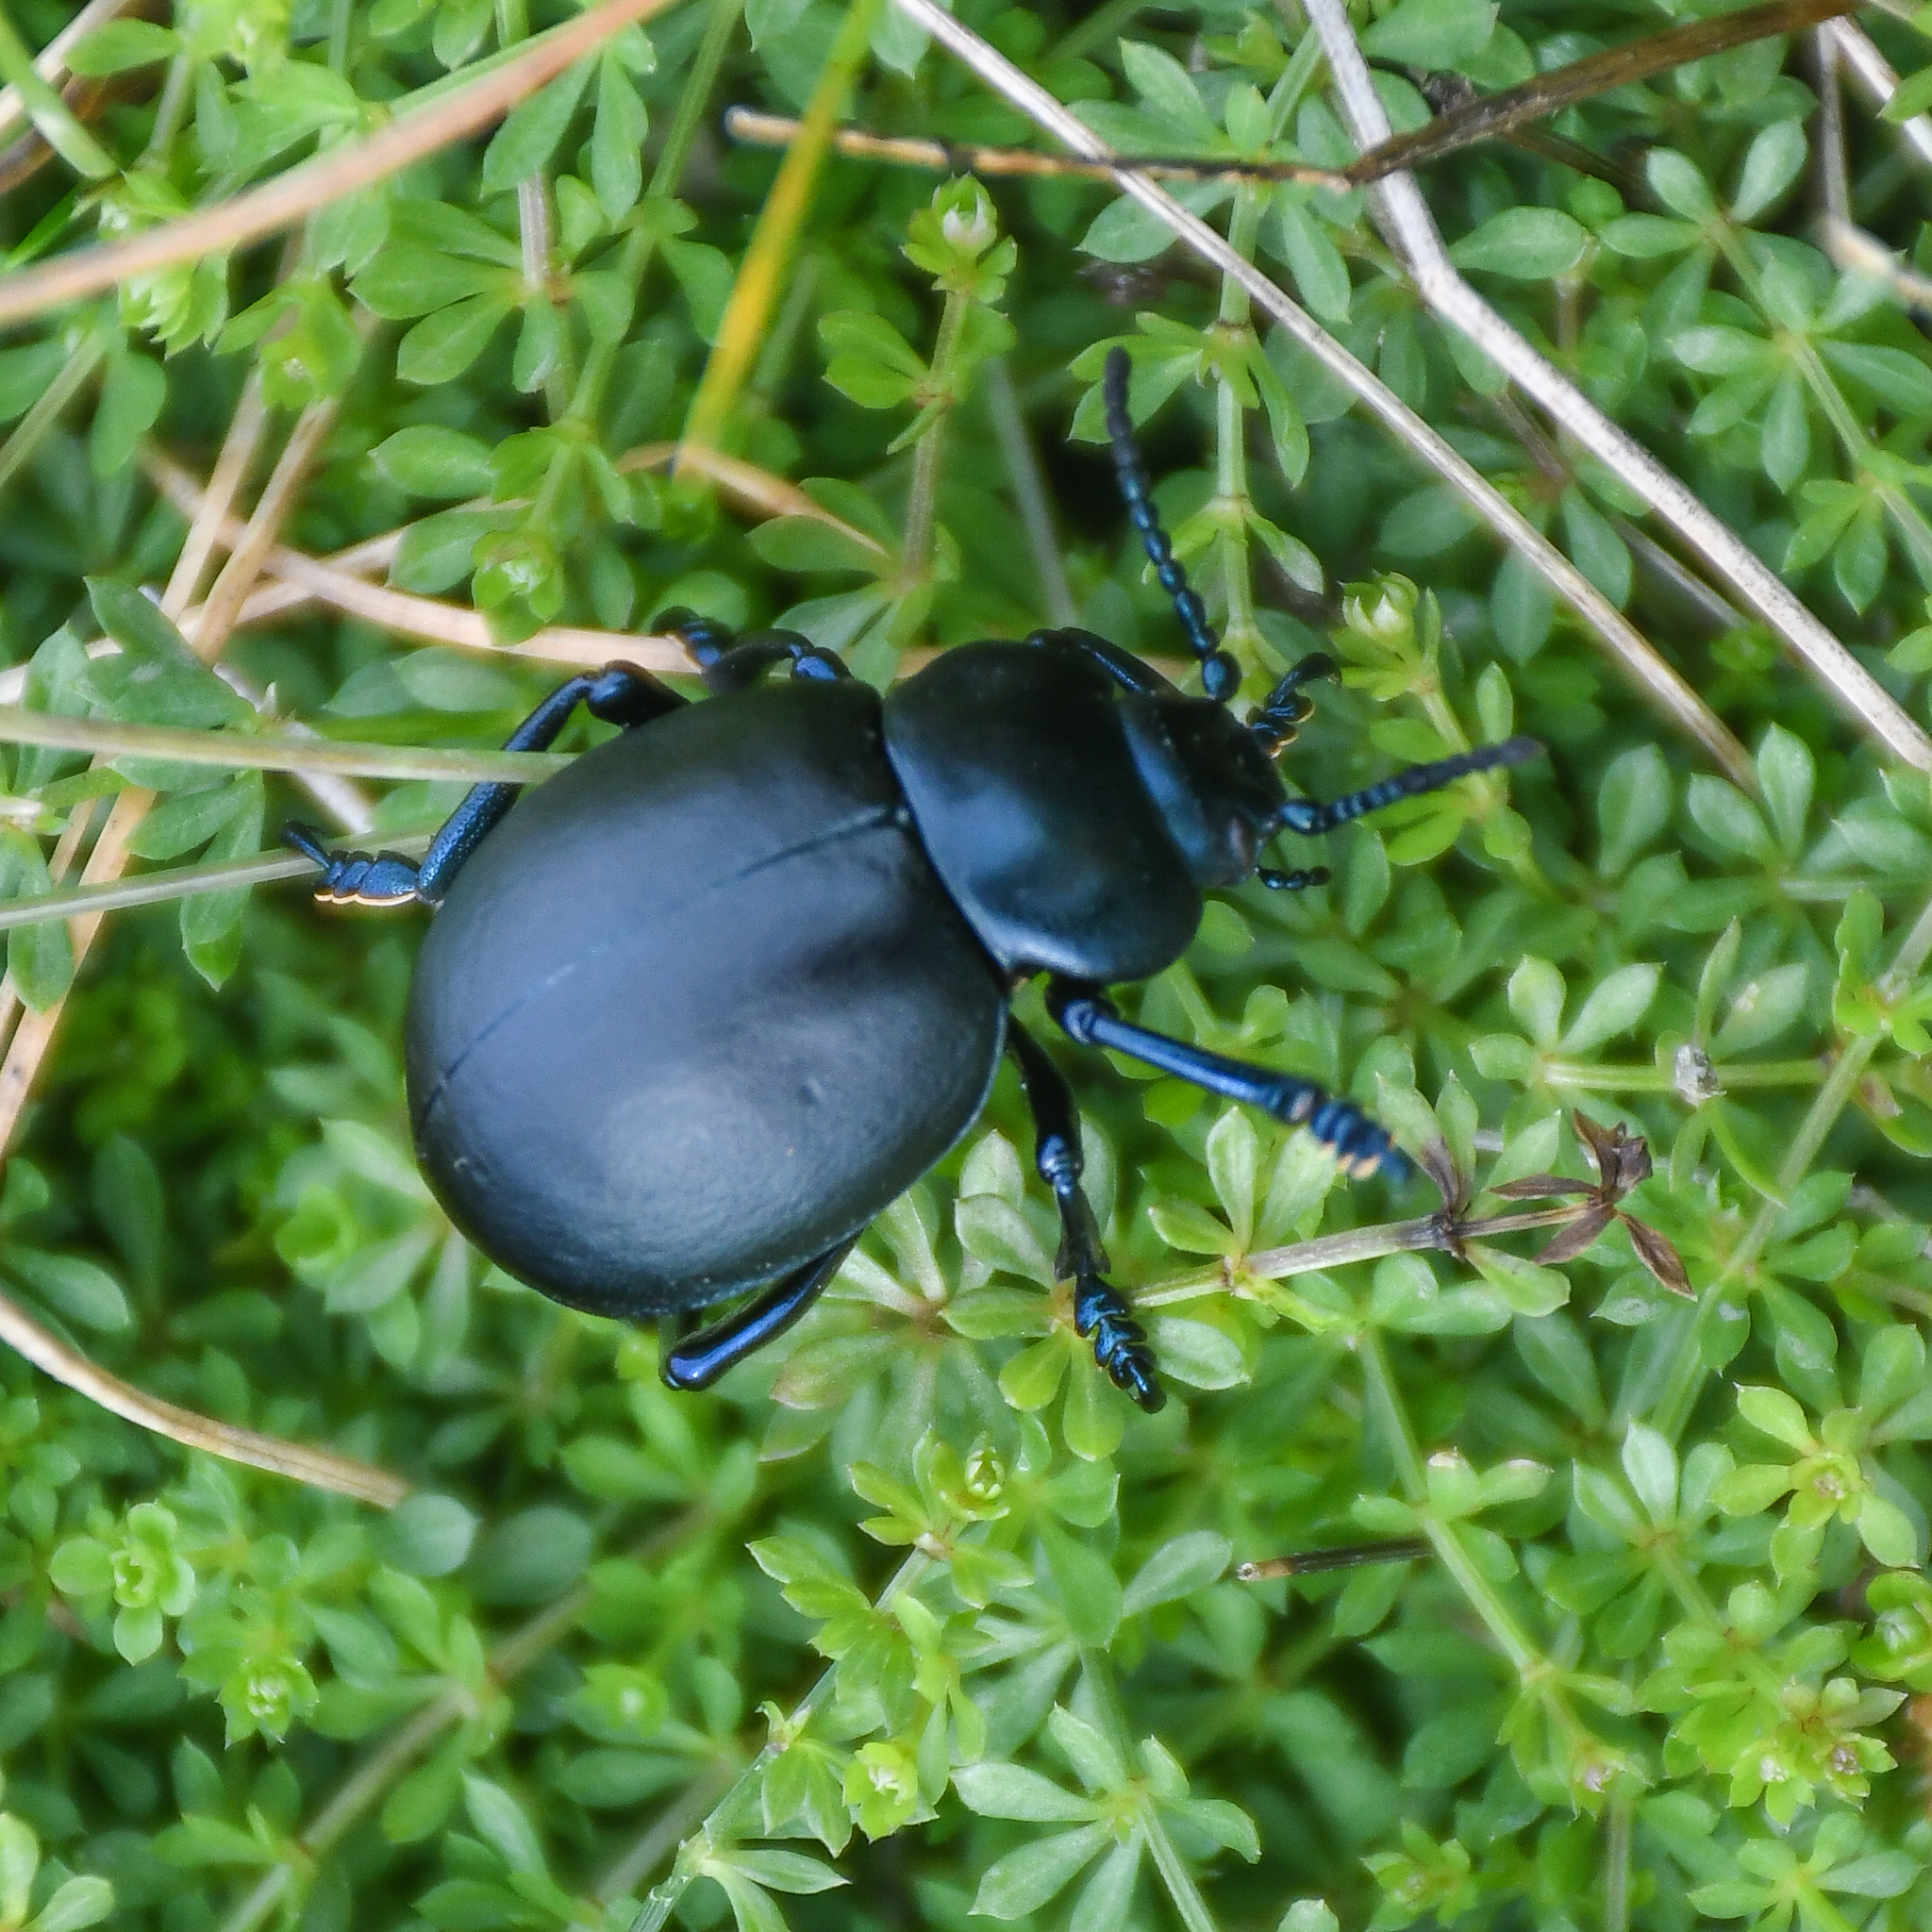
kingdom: Animalia
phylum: Arthropoda
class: Insecta
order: Coleoptera
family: Chrysomelidae
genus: Timarcha
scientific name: Timarcha tenebricosa
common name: Bloody-nosed beetle
